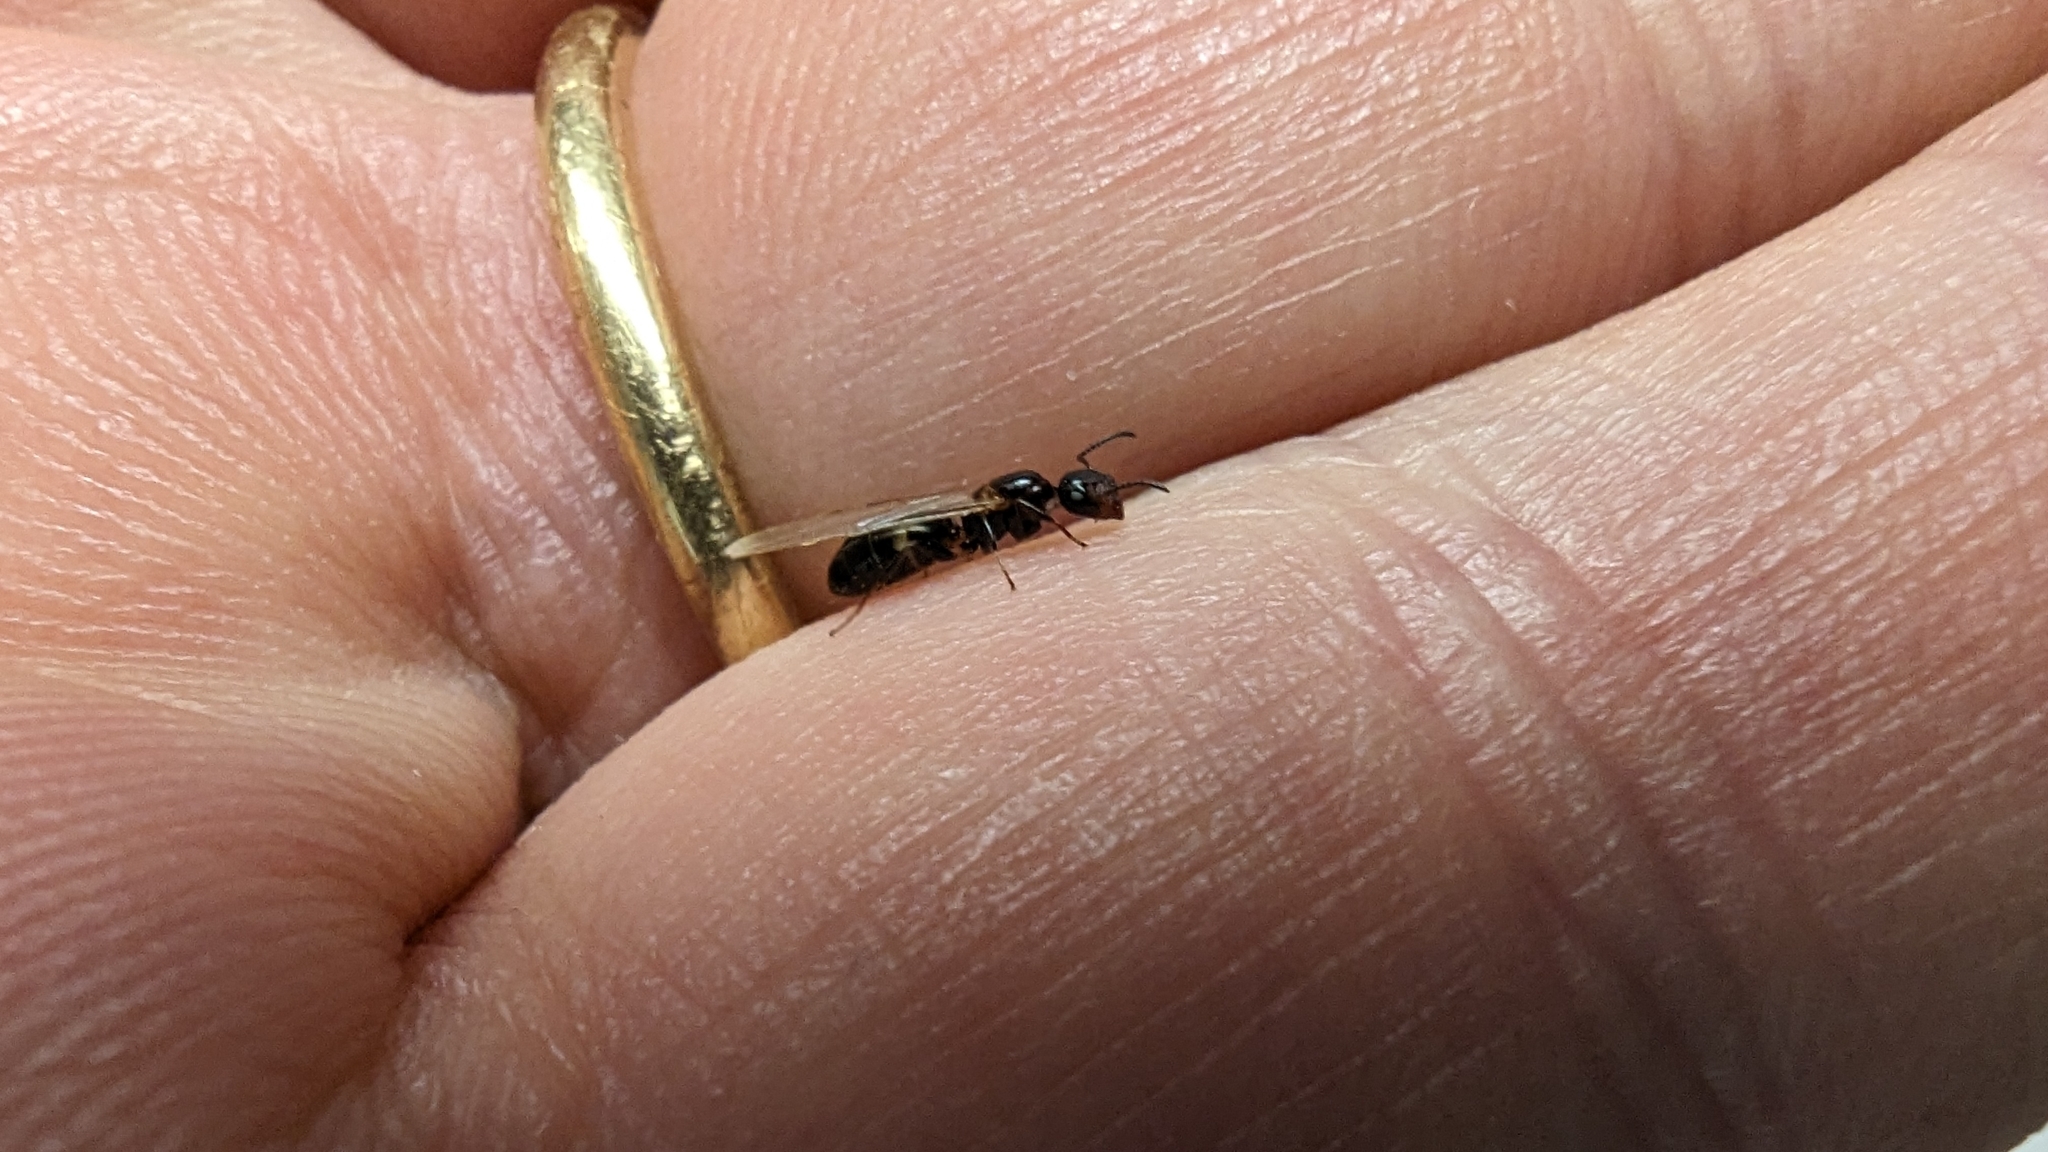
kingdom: Animalia
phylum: Arthropoda
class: Insecta
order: Hymenoptera
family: Formicidae
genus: Camponotus
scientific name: Camponotus truncatus
